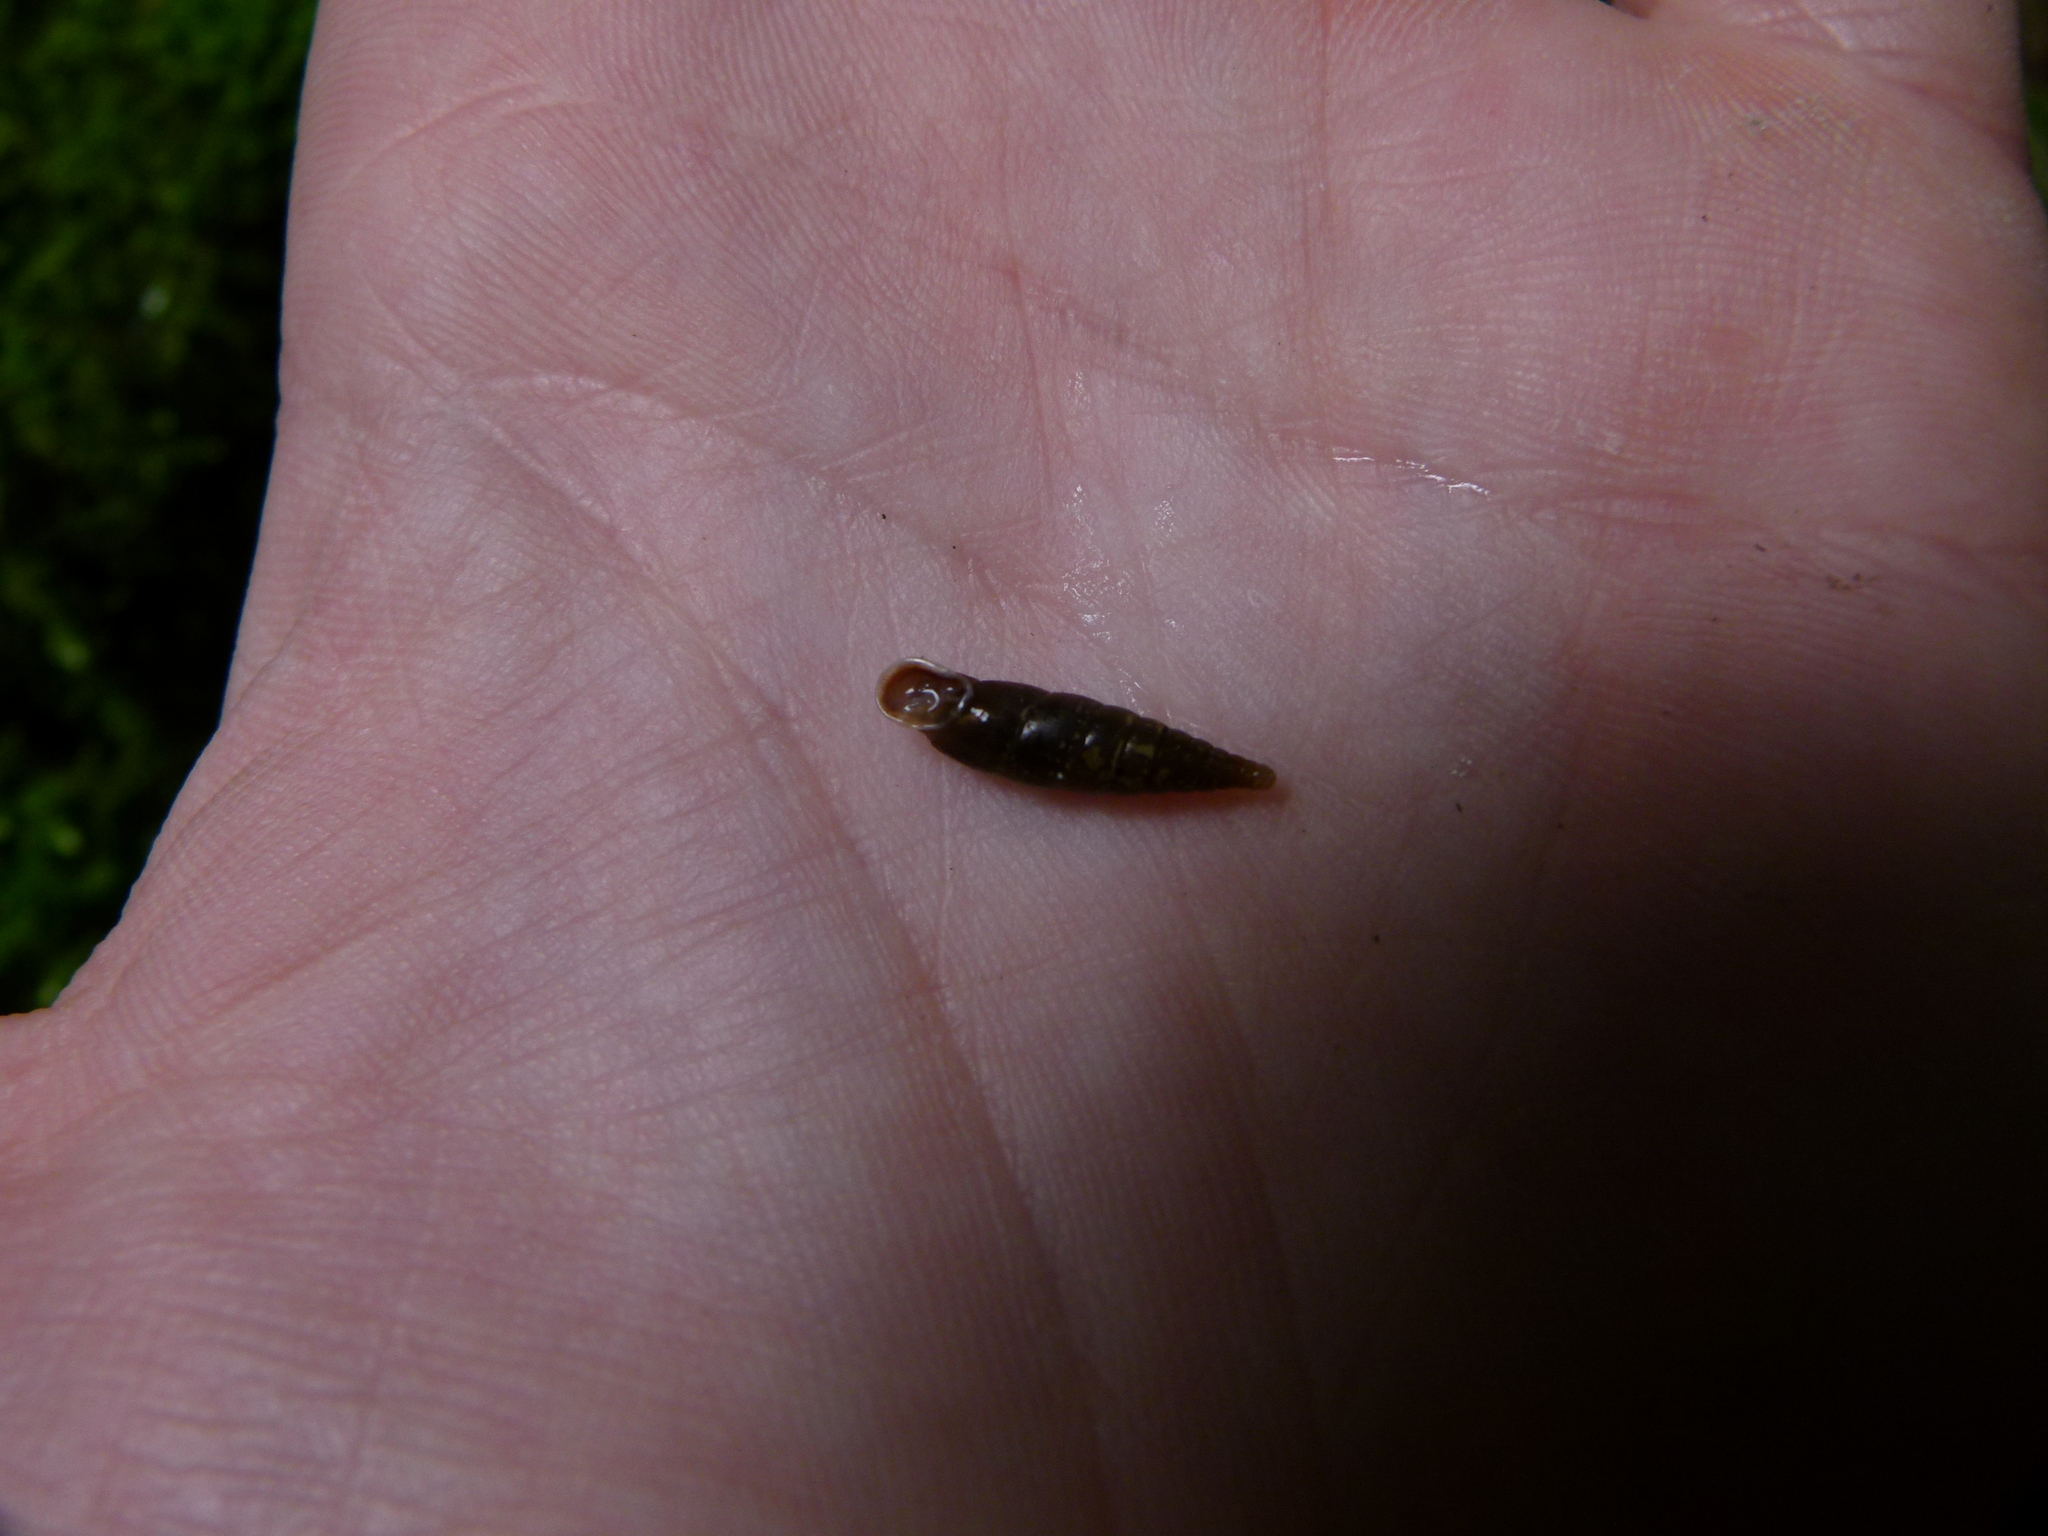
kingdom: Animalia
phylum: Mollusca
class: Gastropoda
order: Stylommatophora
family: Clausiliidae
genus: Cochlodina
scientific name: Cochlodina laminata
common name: Plaited door snail
